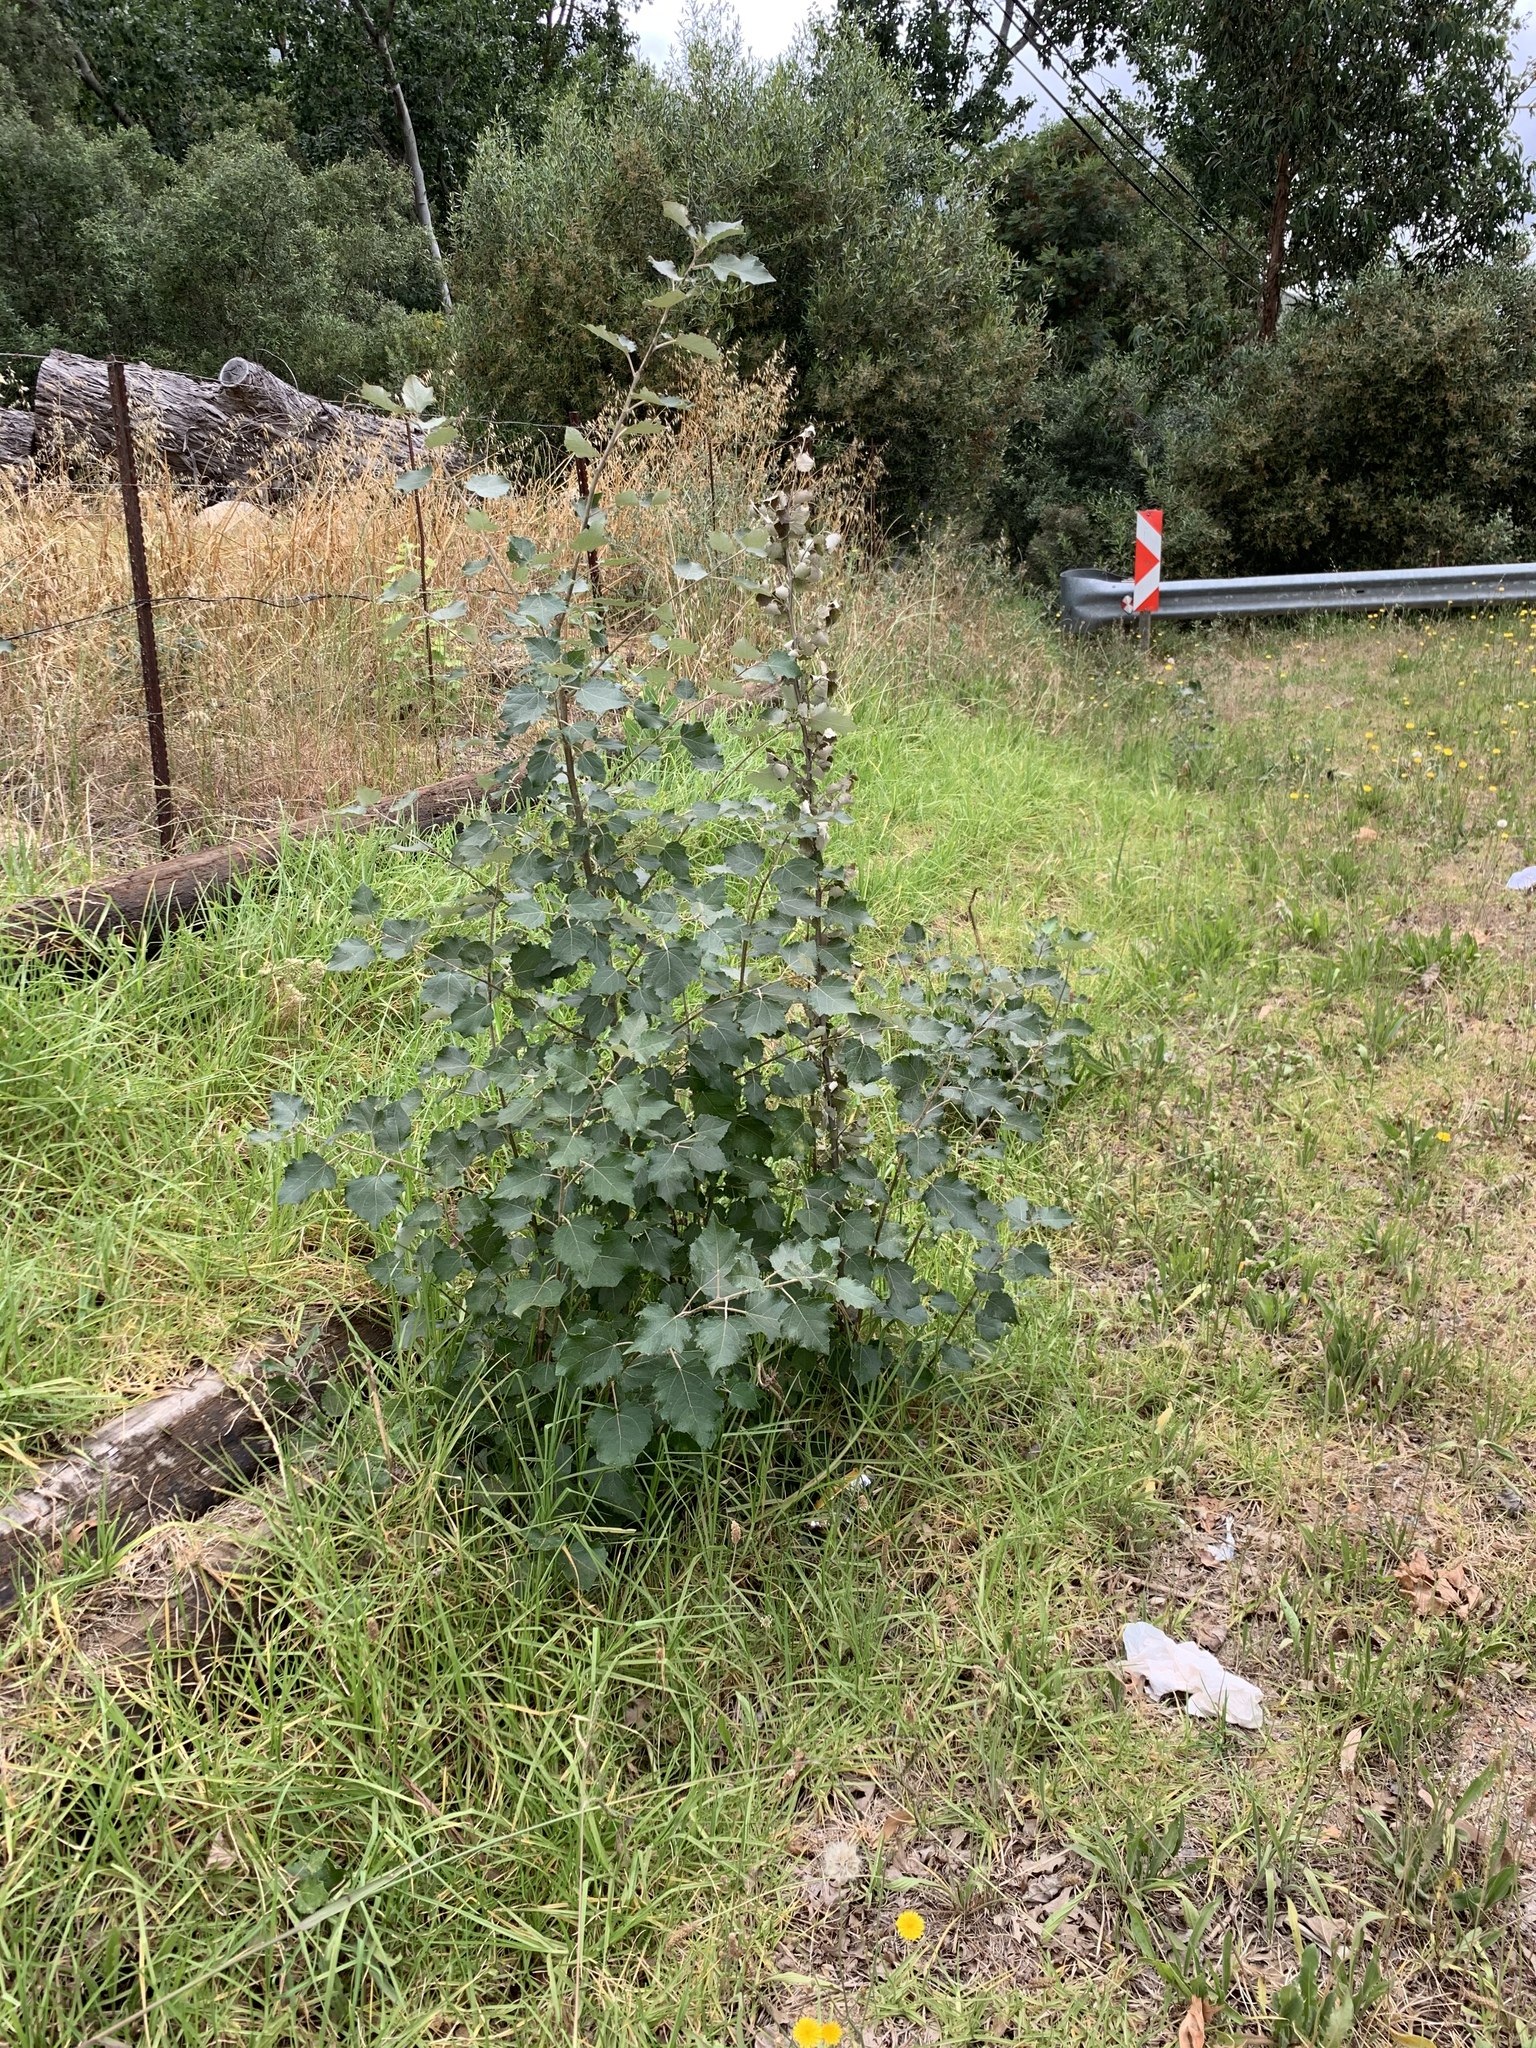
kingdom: Plantae
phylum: Tracheophyta
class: Magnoliopsida
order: Malpighiales
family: Salicaceae
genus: Populus
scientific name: Populus canescens
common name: Gray poplar
